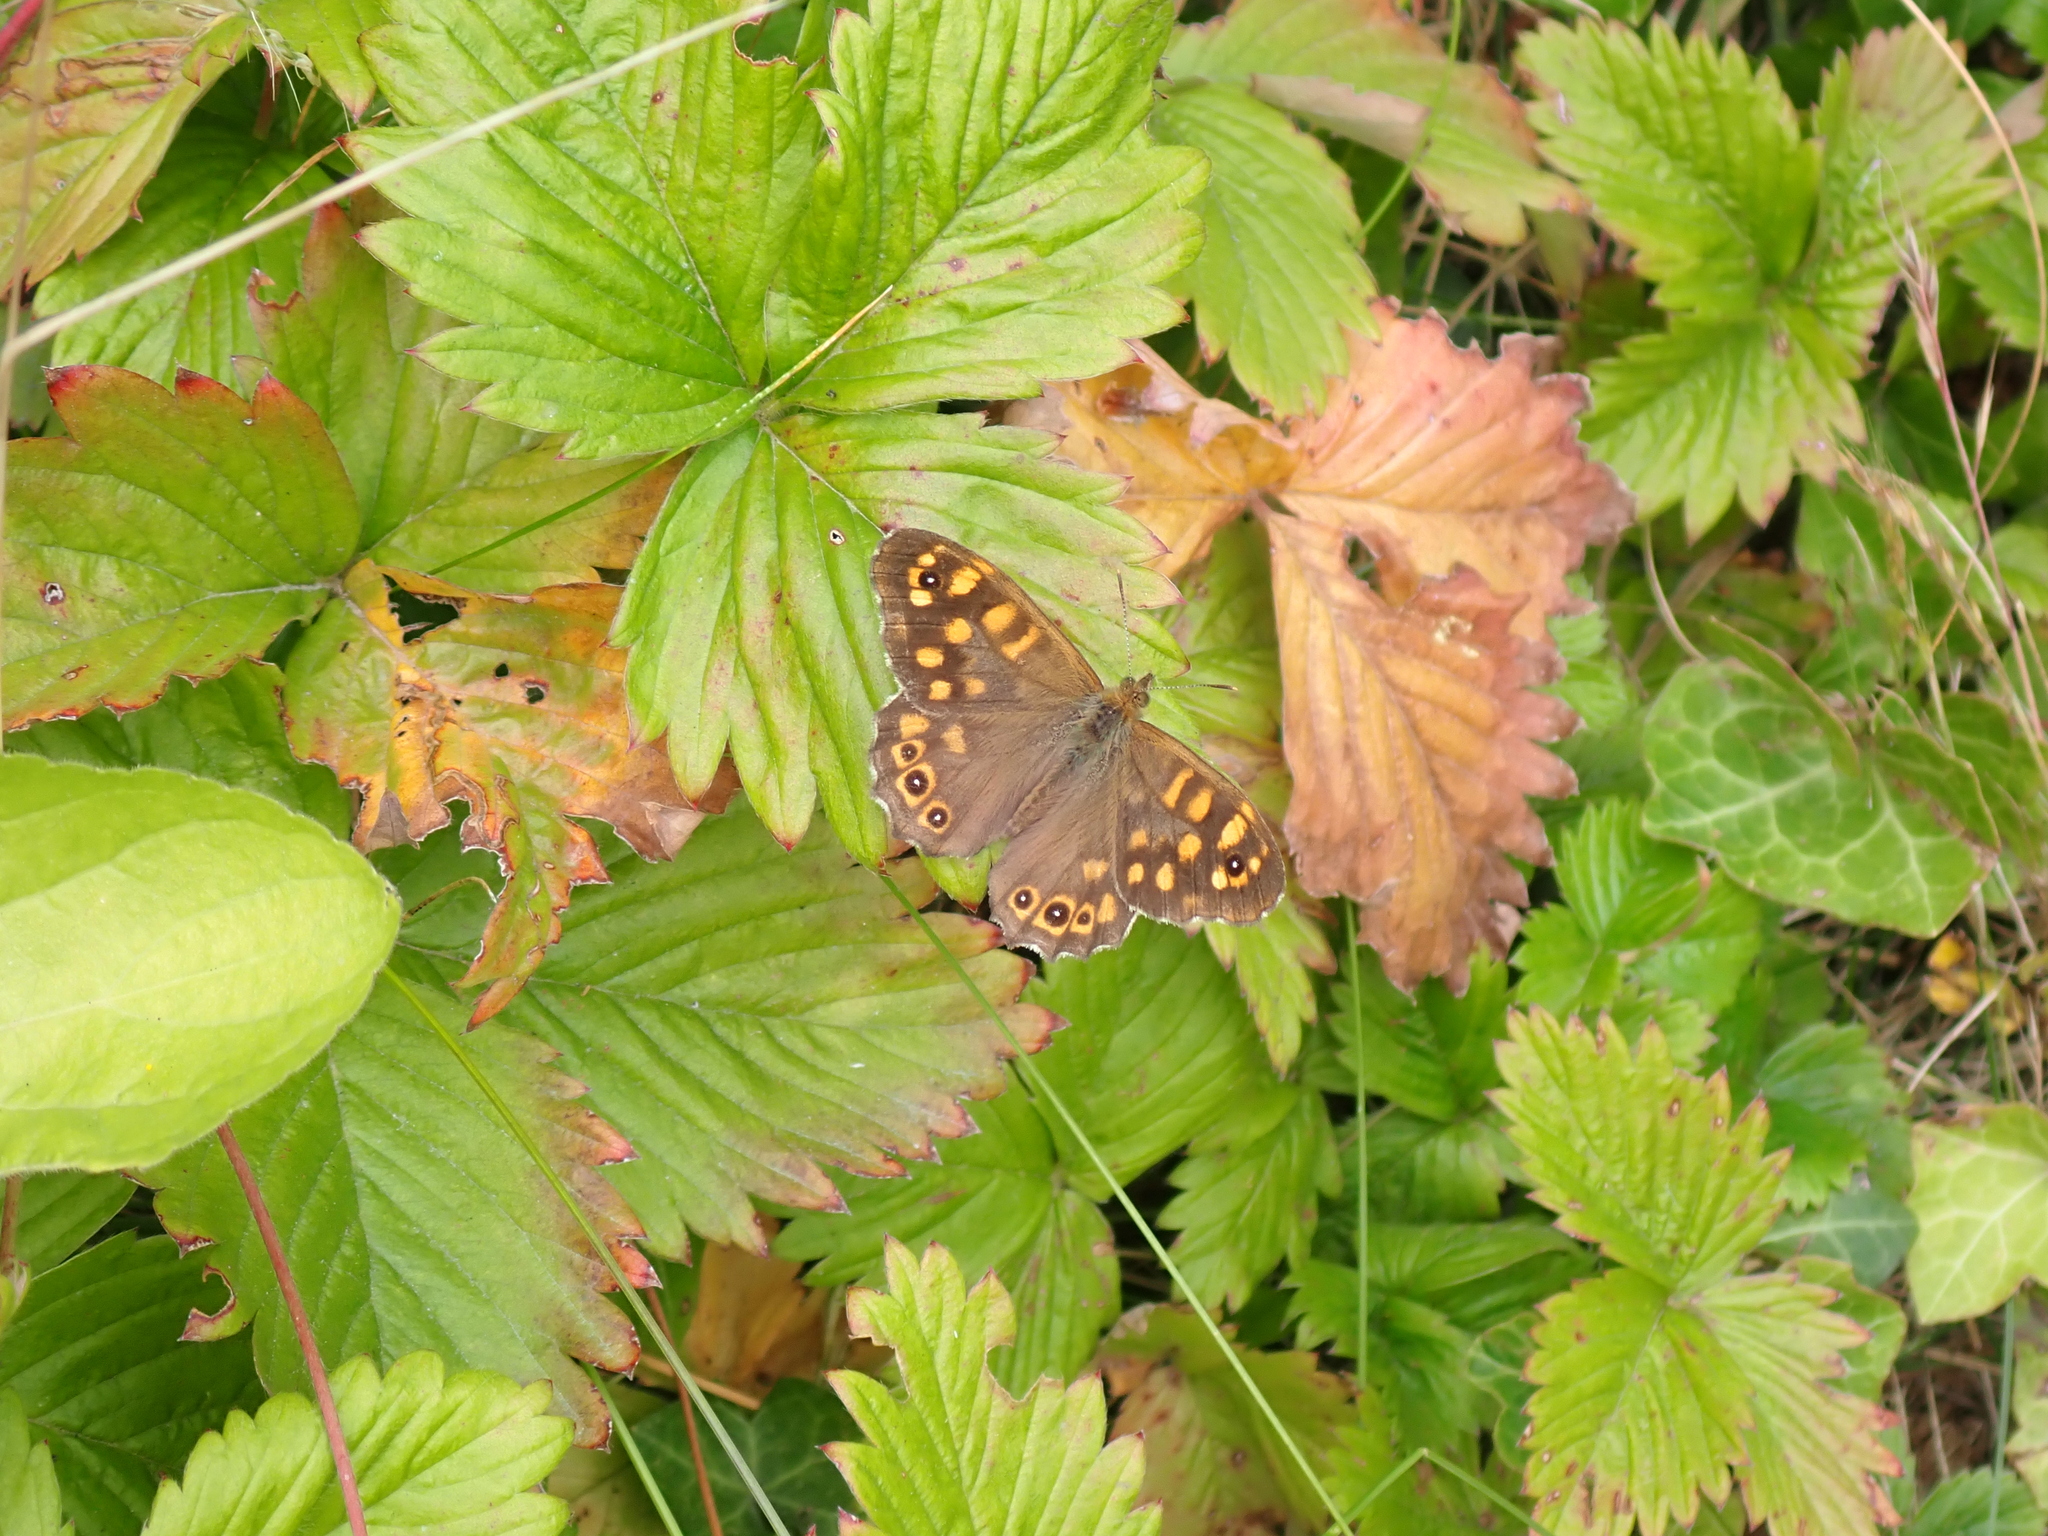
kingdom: Animalia
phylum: Arthropoda
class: Insecta
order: Lepidoptera
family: Nymphalidae
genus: Pararge
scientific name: Pararge aegeria
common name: Speckled wood
